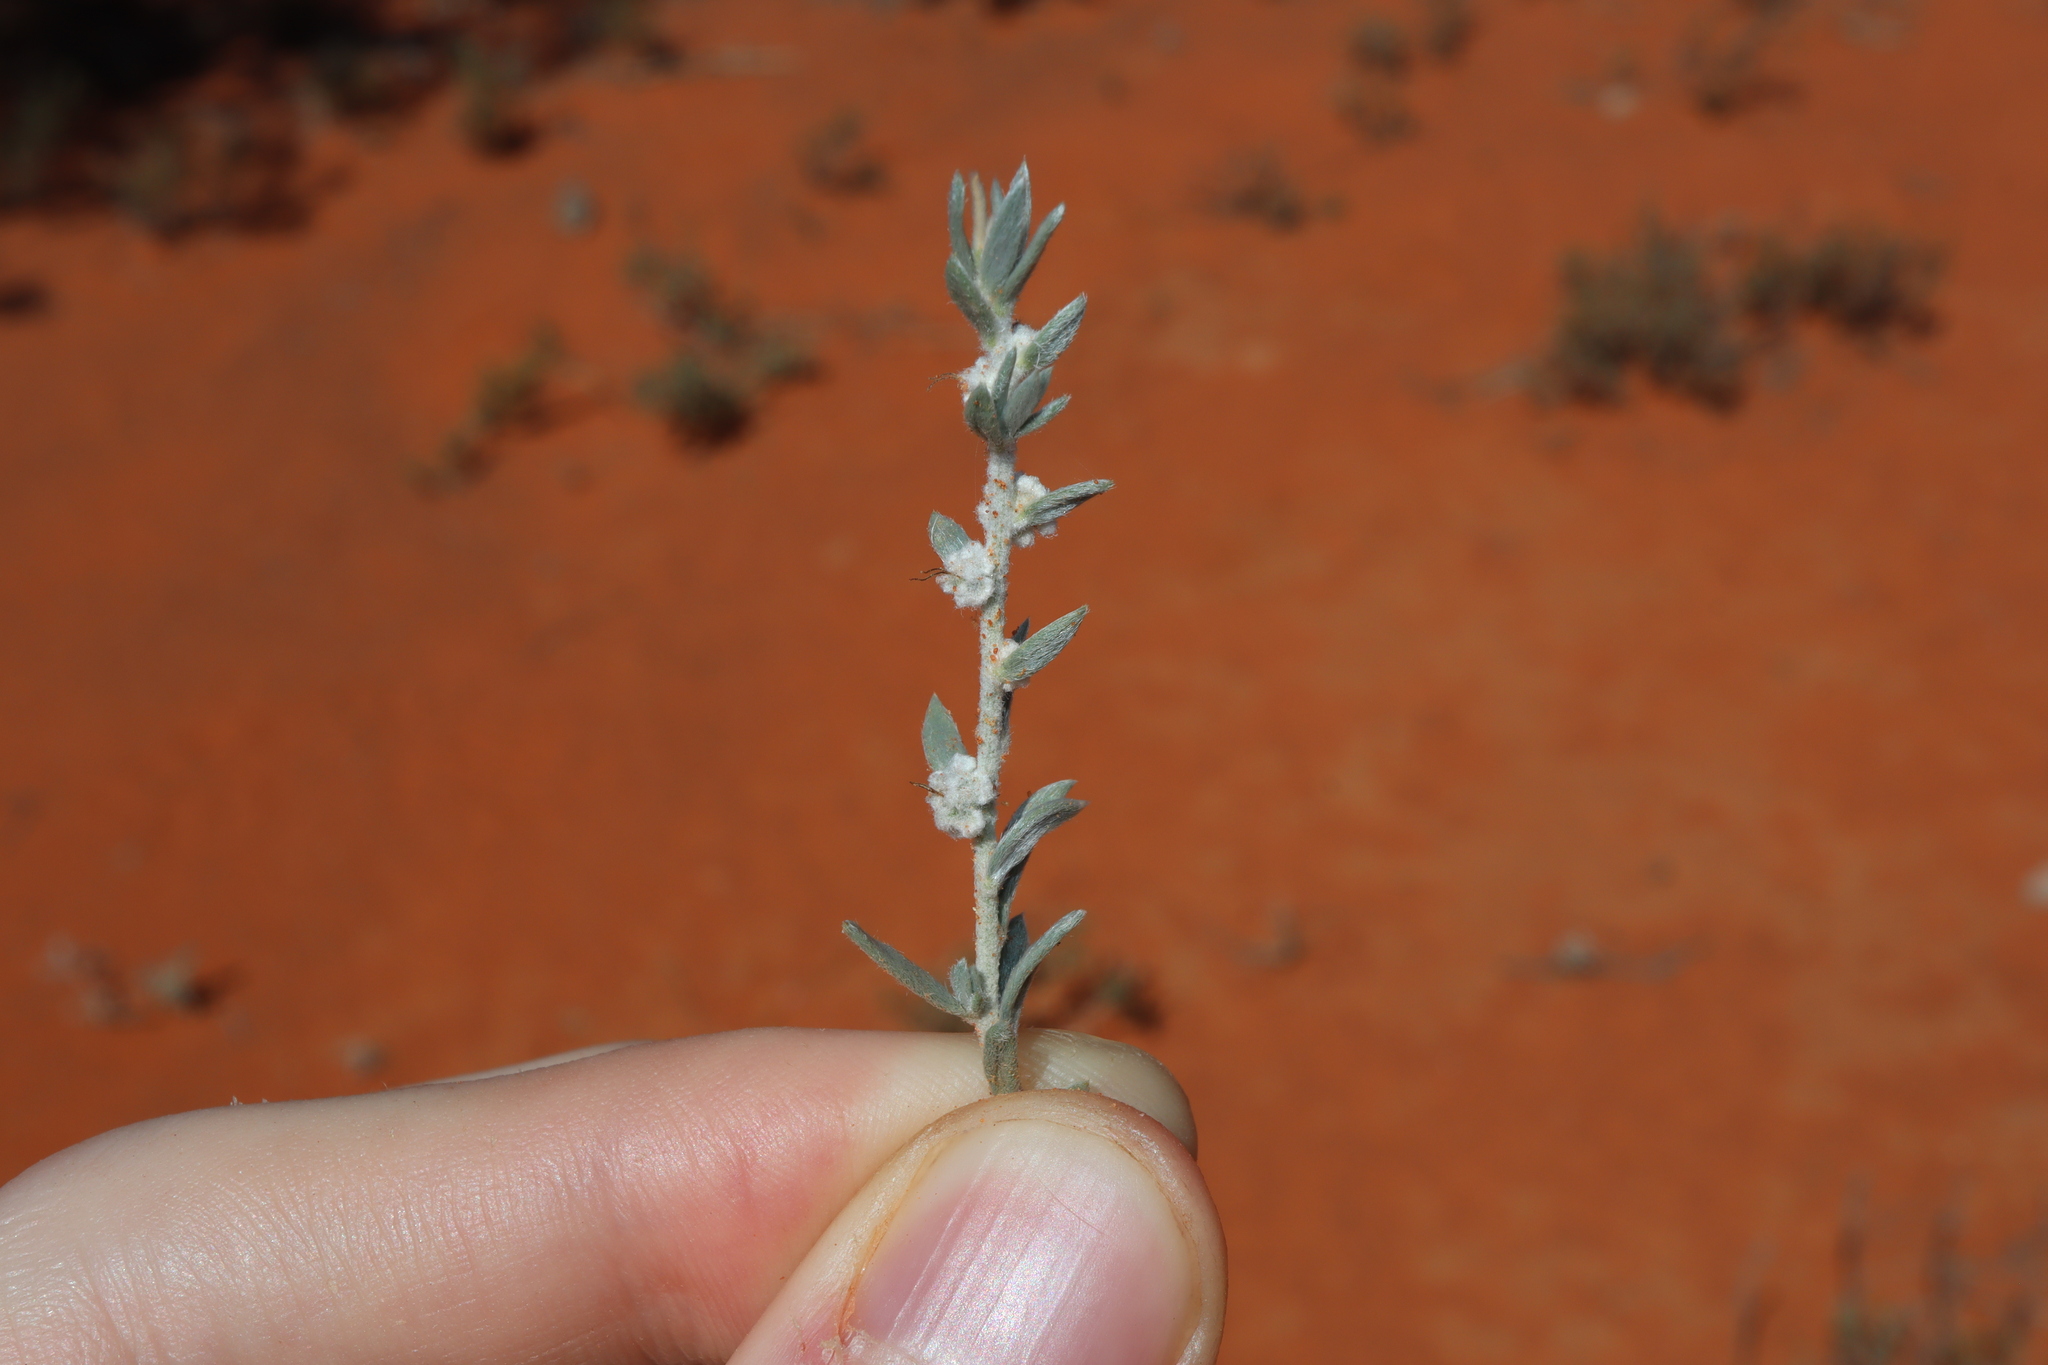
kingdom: Plantae
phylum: Tracheophyta
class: Magnoliopsida
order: Caryophyllales
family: Amaranthaceae
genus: Maireana
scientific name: Maireana lobiflora
